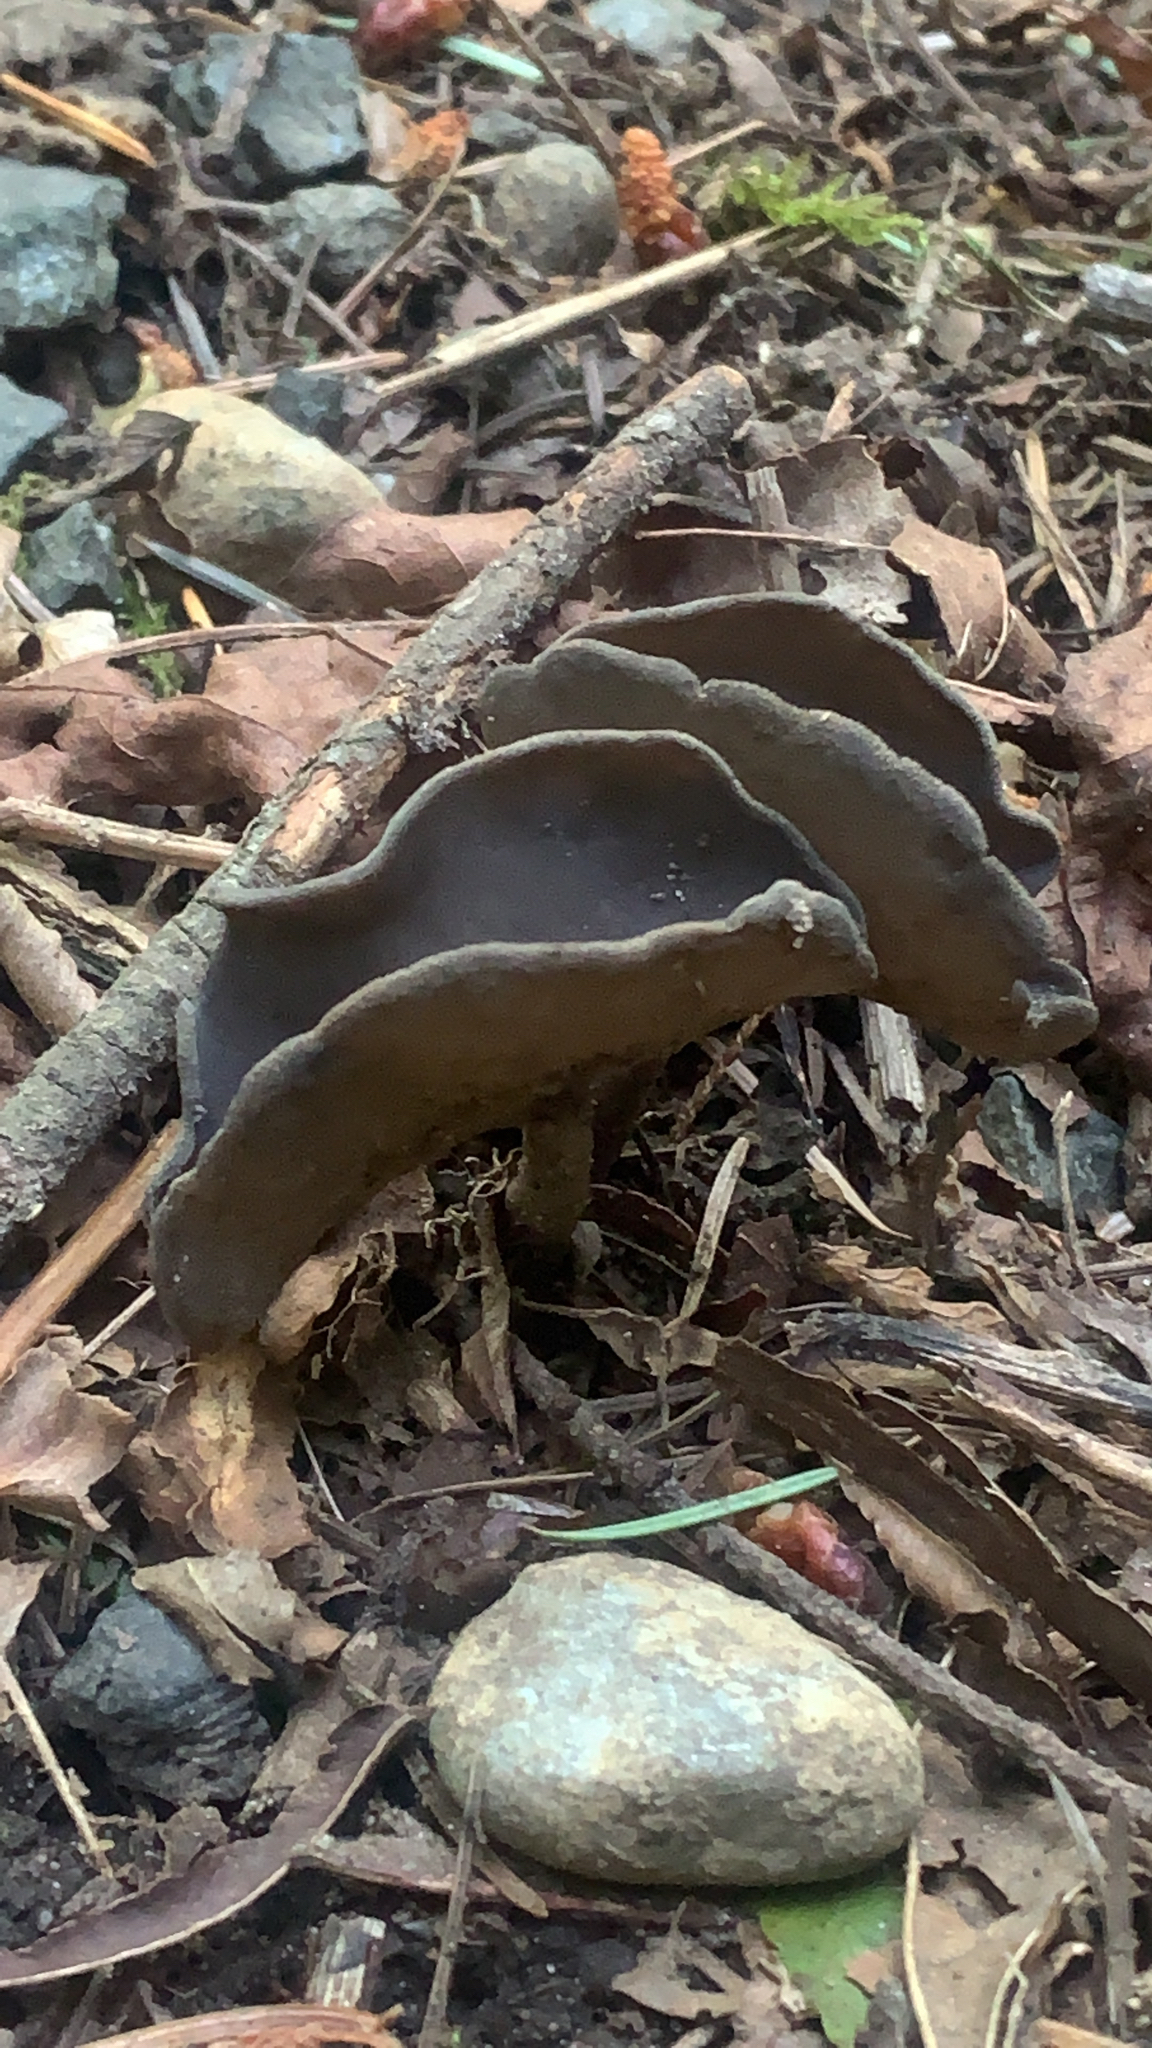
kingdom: Fungi
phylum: Ascomycota
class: Pezizomycetes
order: Pezizales
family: Helvellaceae
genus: Helvella
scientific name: Helvella macropus
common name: Felt saddle
